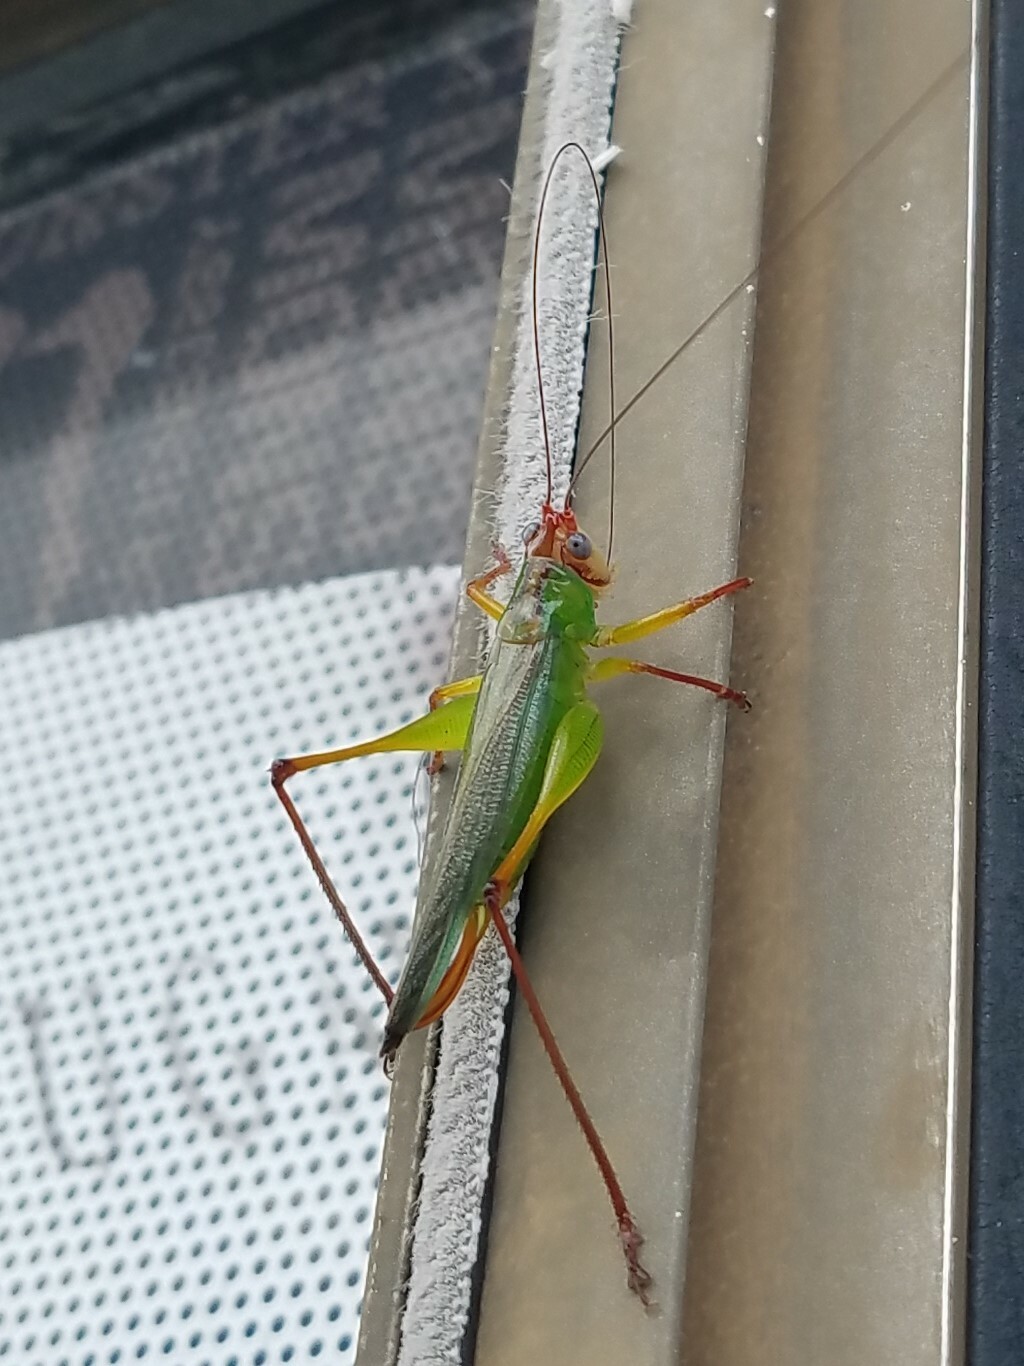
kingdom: Animalia
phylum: Arthropoda
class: Insecta
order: Orthoptera
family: Tettigoniidae
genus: Orchelimum
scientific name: Orchelimum pulchellum
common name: Handsome meadow katydid
